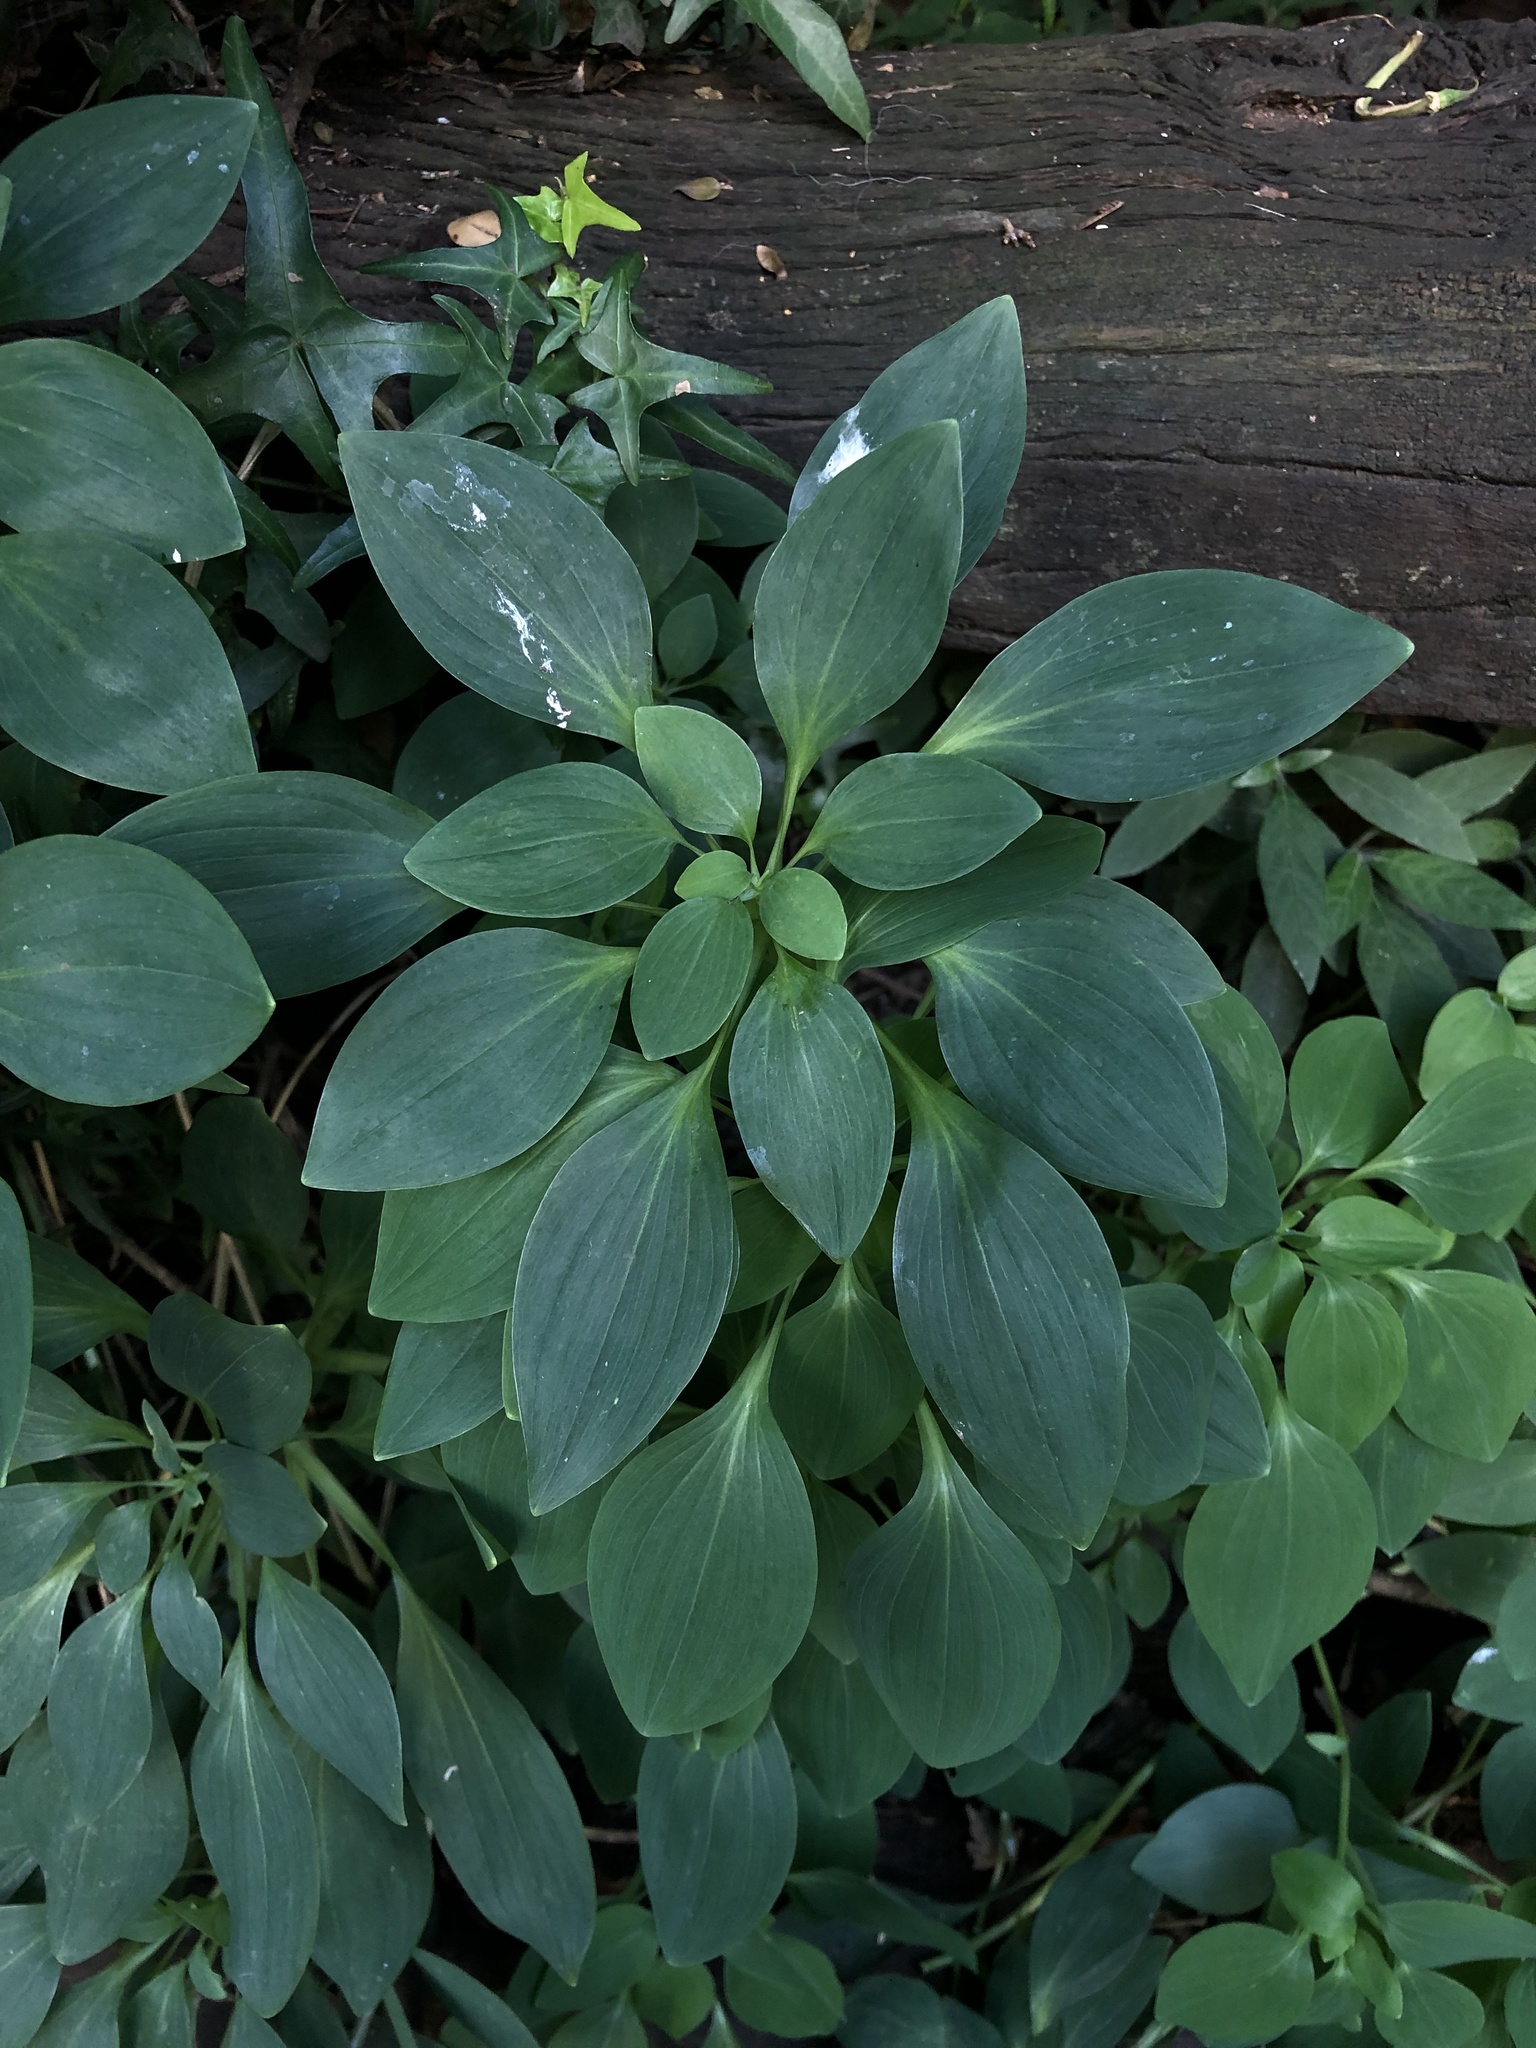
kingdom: Plantae
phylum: Tracheophyta
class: Liliopsida
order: Liliales
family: Alstroemeriaceae
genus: Alstroemeria
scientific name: Alstroemeria psittacina
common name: Peruvian-lily
